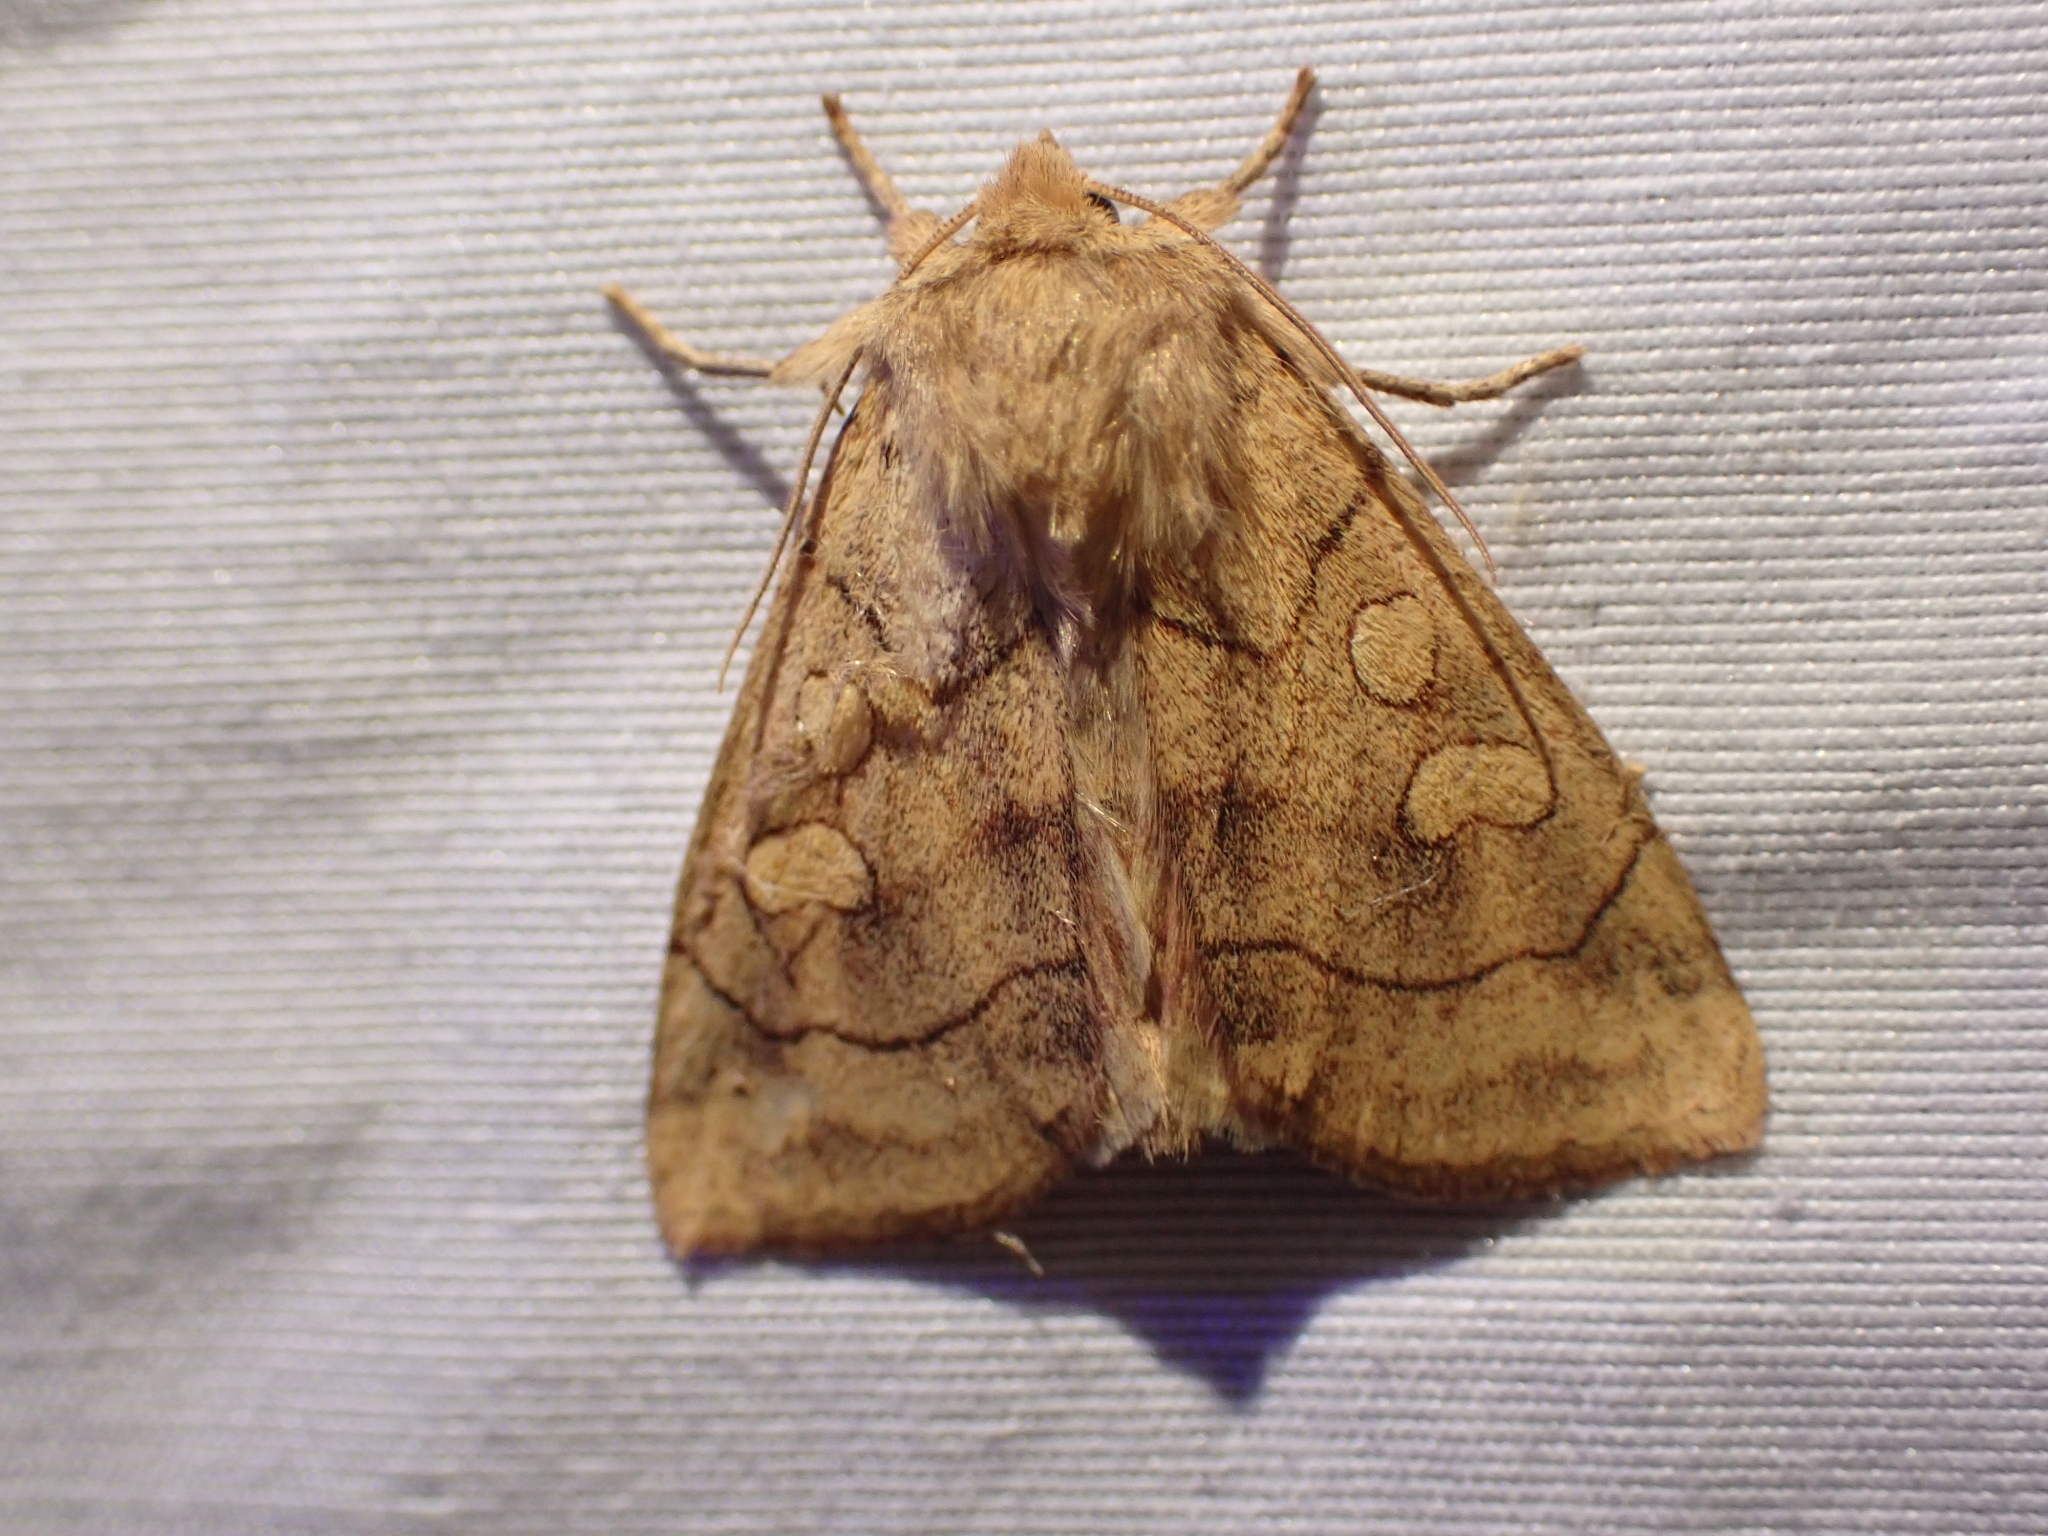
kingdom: Animalia
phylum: Arthropoda
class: Insecta
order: Lepidoptera
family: Noctuidae
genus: Enargia
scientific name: Enargia decolor
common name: Aspen twoleaf tier moth
